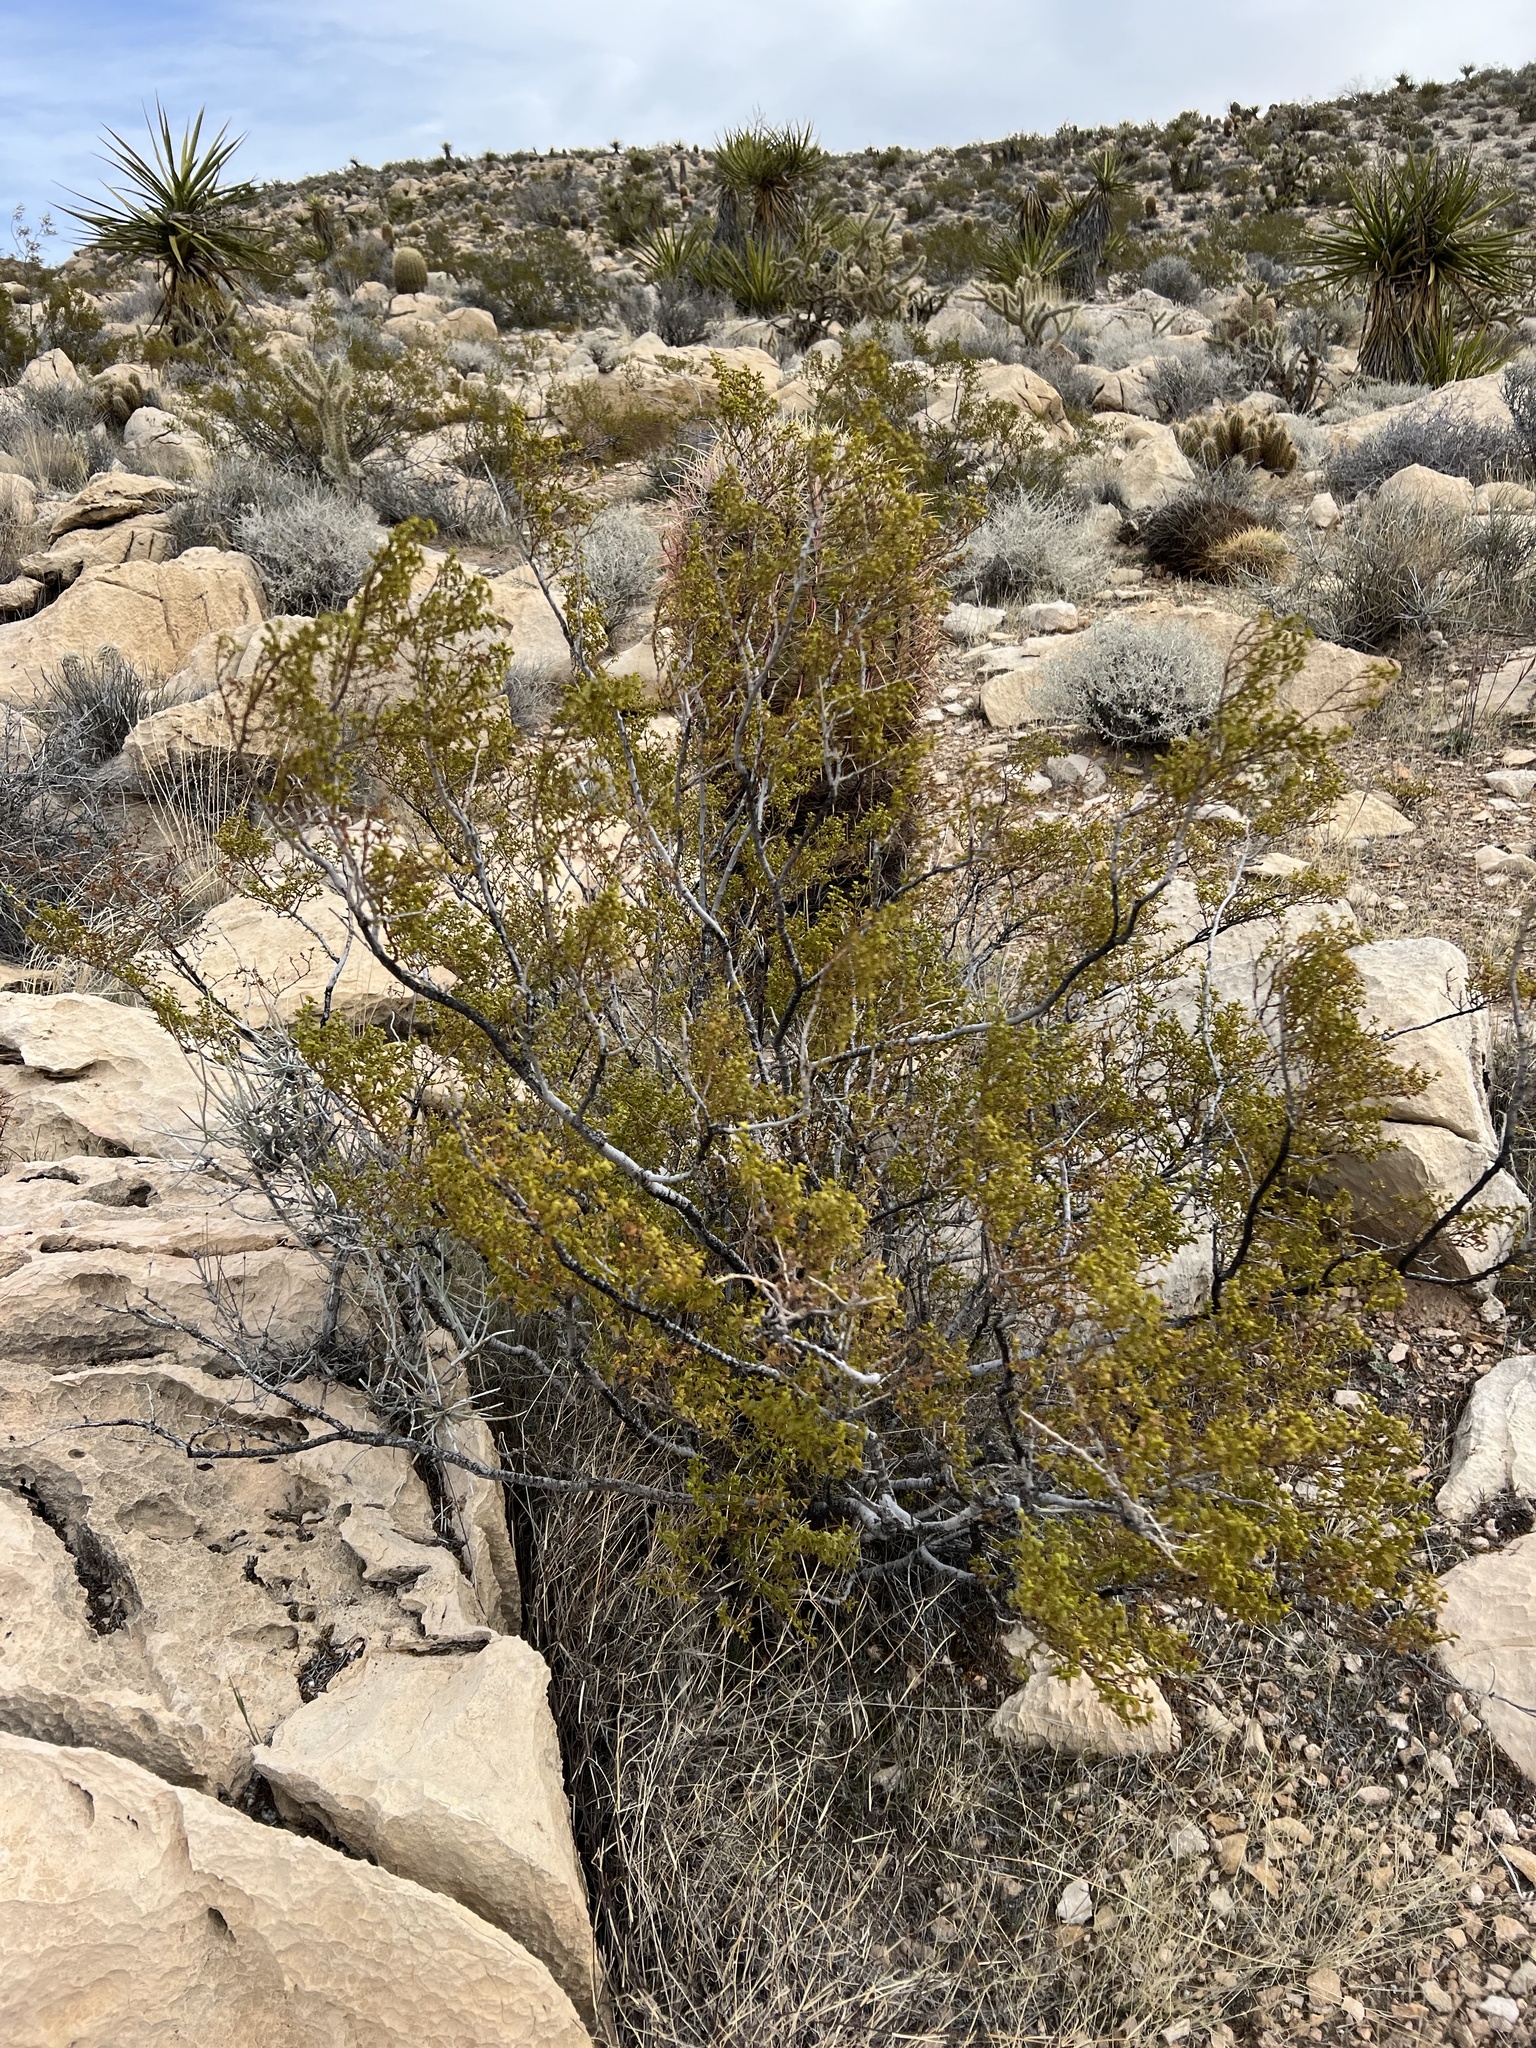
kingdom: Plantae
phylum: Tracheophyta
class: Magnoliopsida
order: Zygophyllales
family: Zygophyllaceae
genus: Larrea
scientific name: Larrea tridentata
